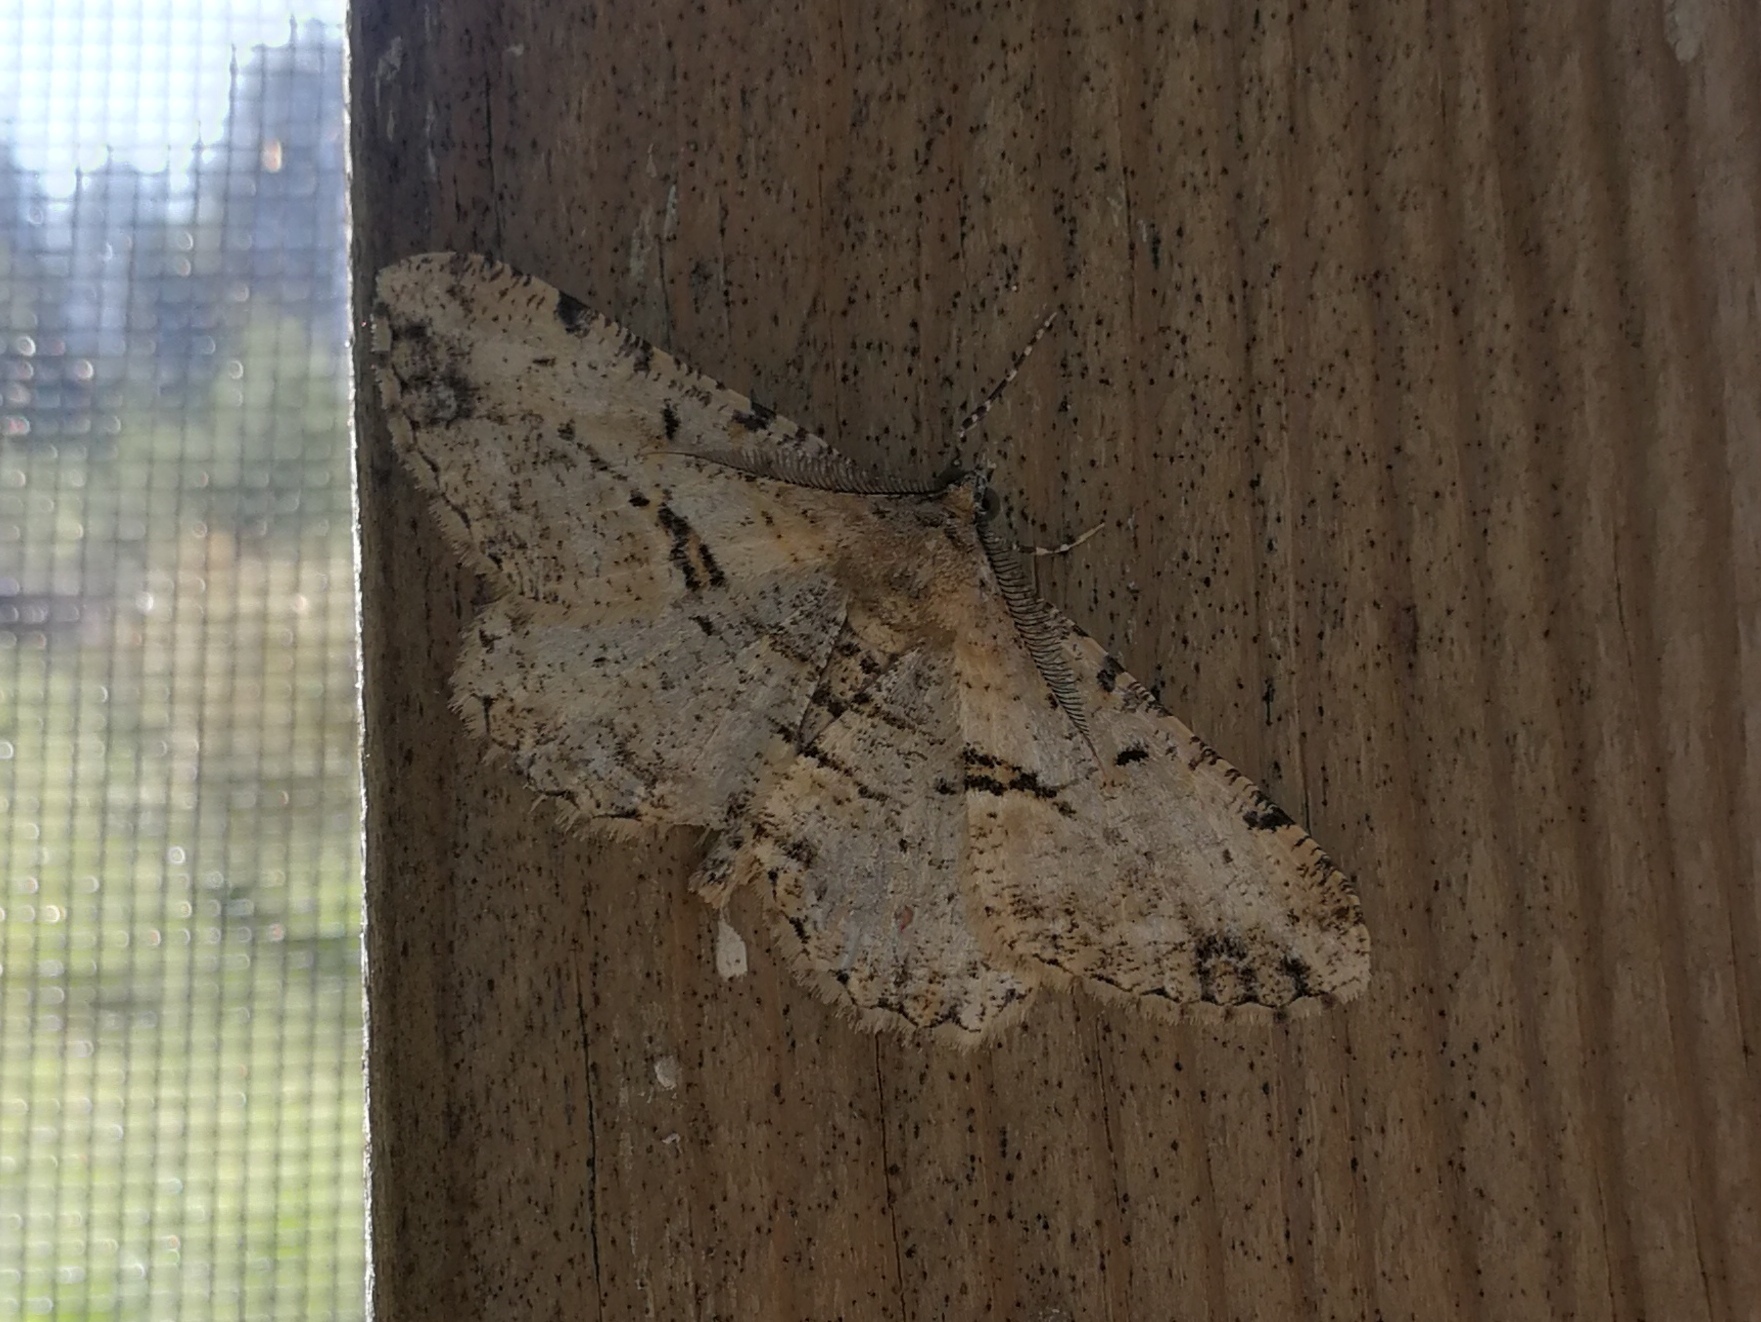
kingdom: Animalia
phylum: Arthropoda
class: Insecta
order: Lepidoptera
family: Geometridae
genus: Peribatodes
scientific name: Peribatodes perversaria
